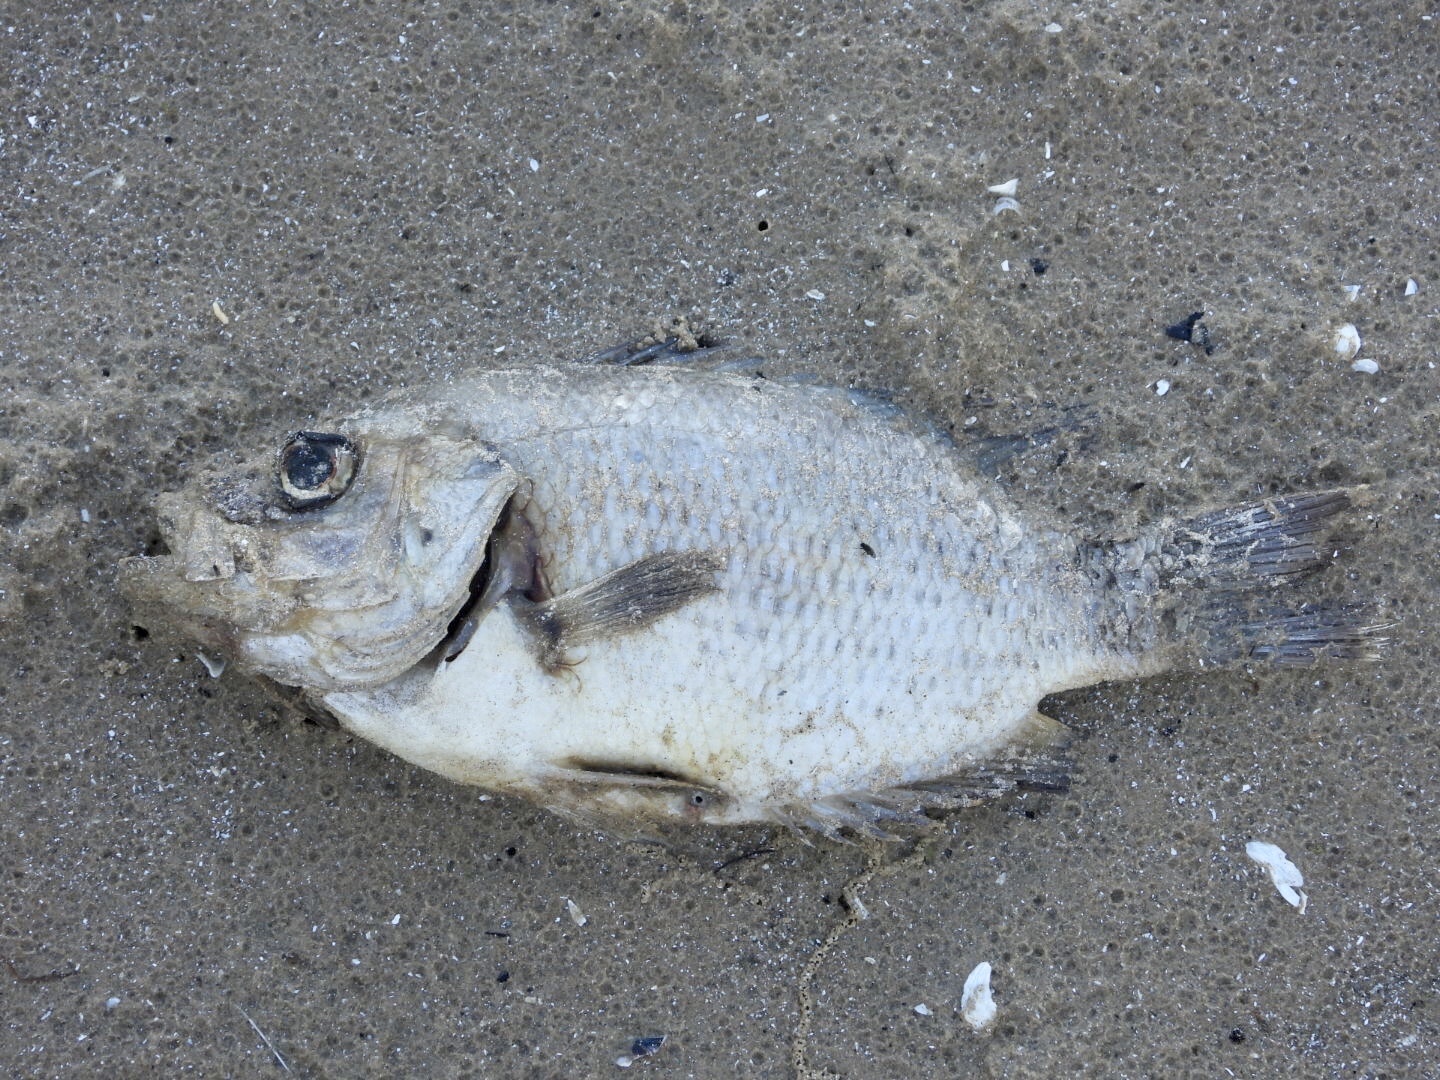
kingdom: Animalia
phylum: Chordata
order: Perciformes
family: Centrarchidae
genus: Ambloplites
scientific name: Ambloplites rupestris
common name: Rock bass
